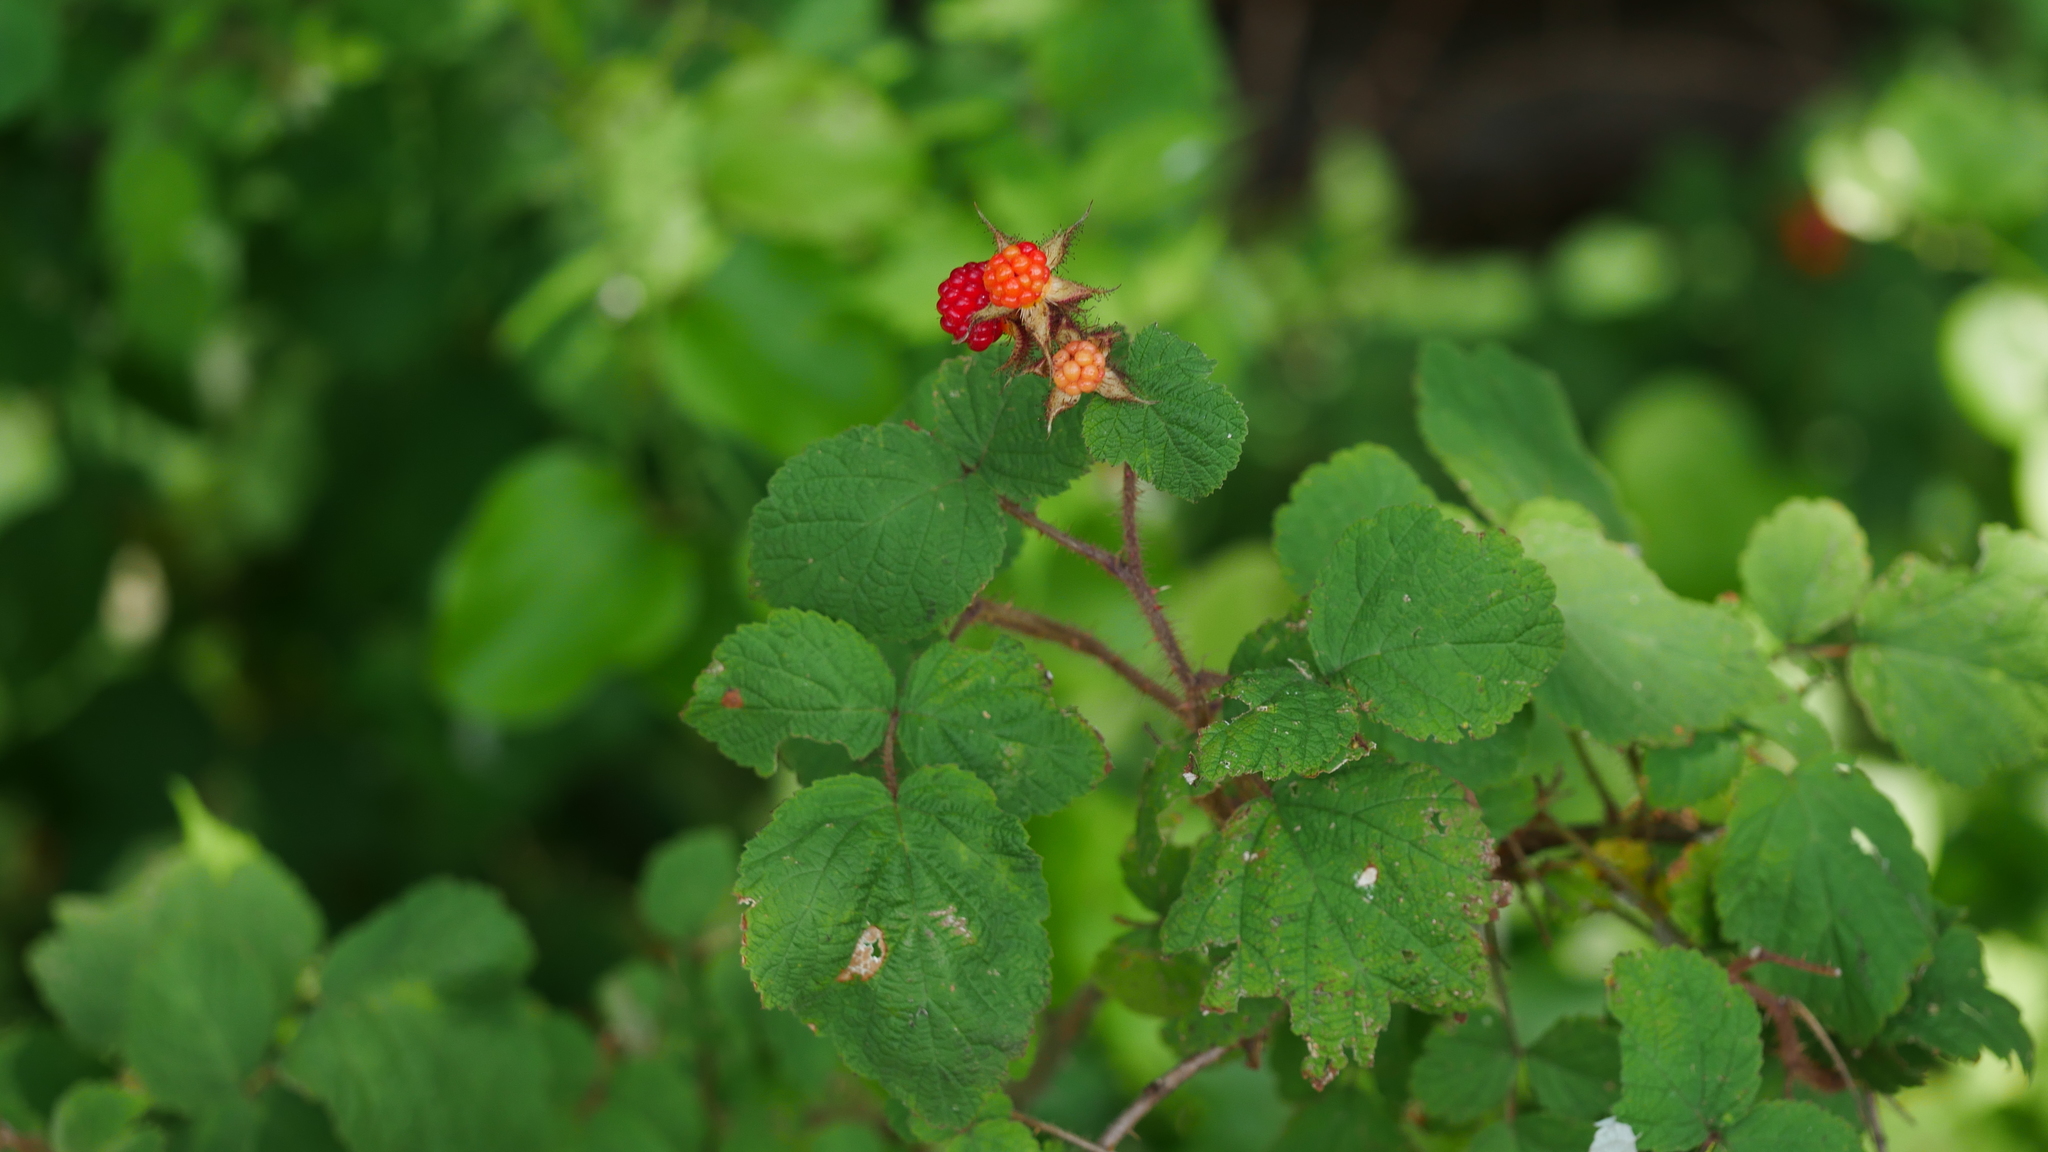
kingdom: Plantae
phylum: Tracheophyta
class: Magnoliopsida
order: Rosales
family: Rosaceae
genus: Rubus
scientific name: Rubus phoenicolasius
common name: Japanese wineberry
